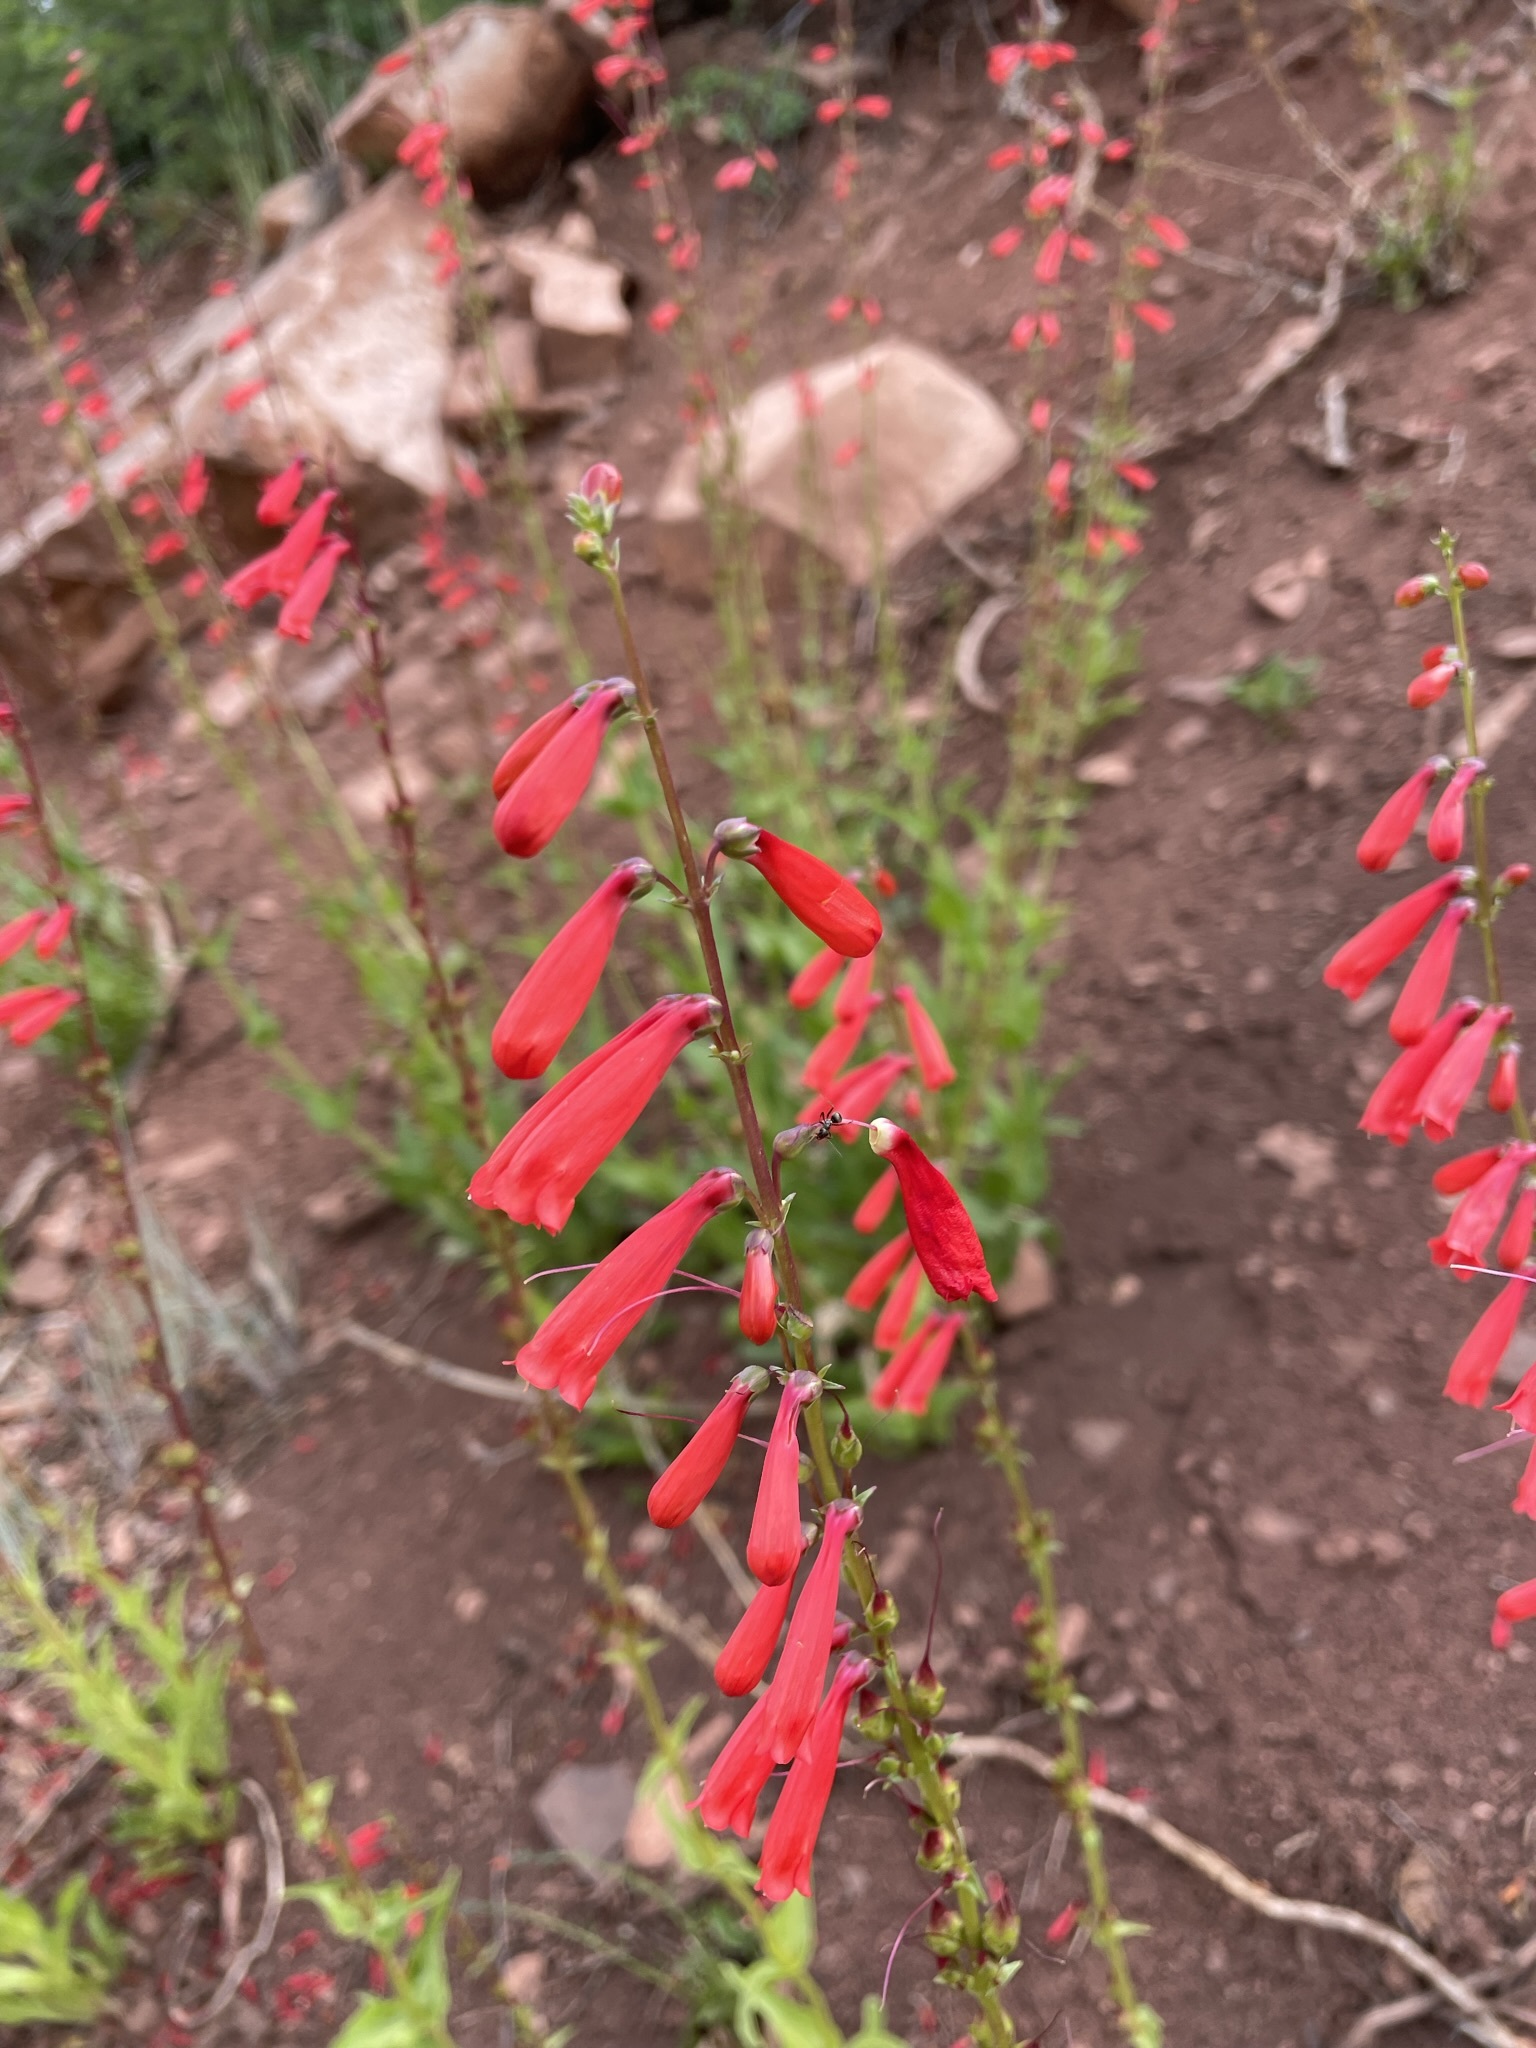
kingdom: Plantae
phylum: Tracheophyta
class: Magnoliopsida
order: Lamiales
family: Plantaginaceae
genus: Penstemon
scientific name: Penstemon eatonii
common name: Eaton's penstemon
